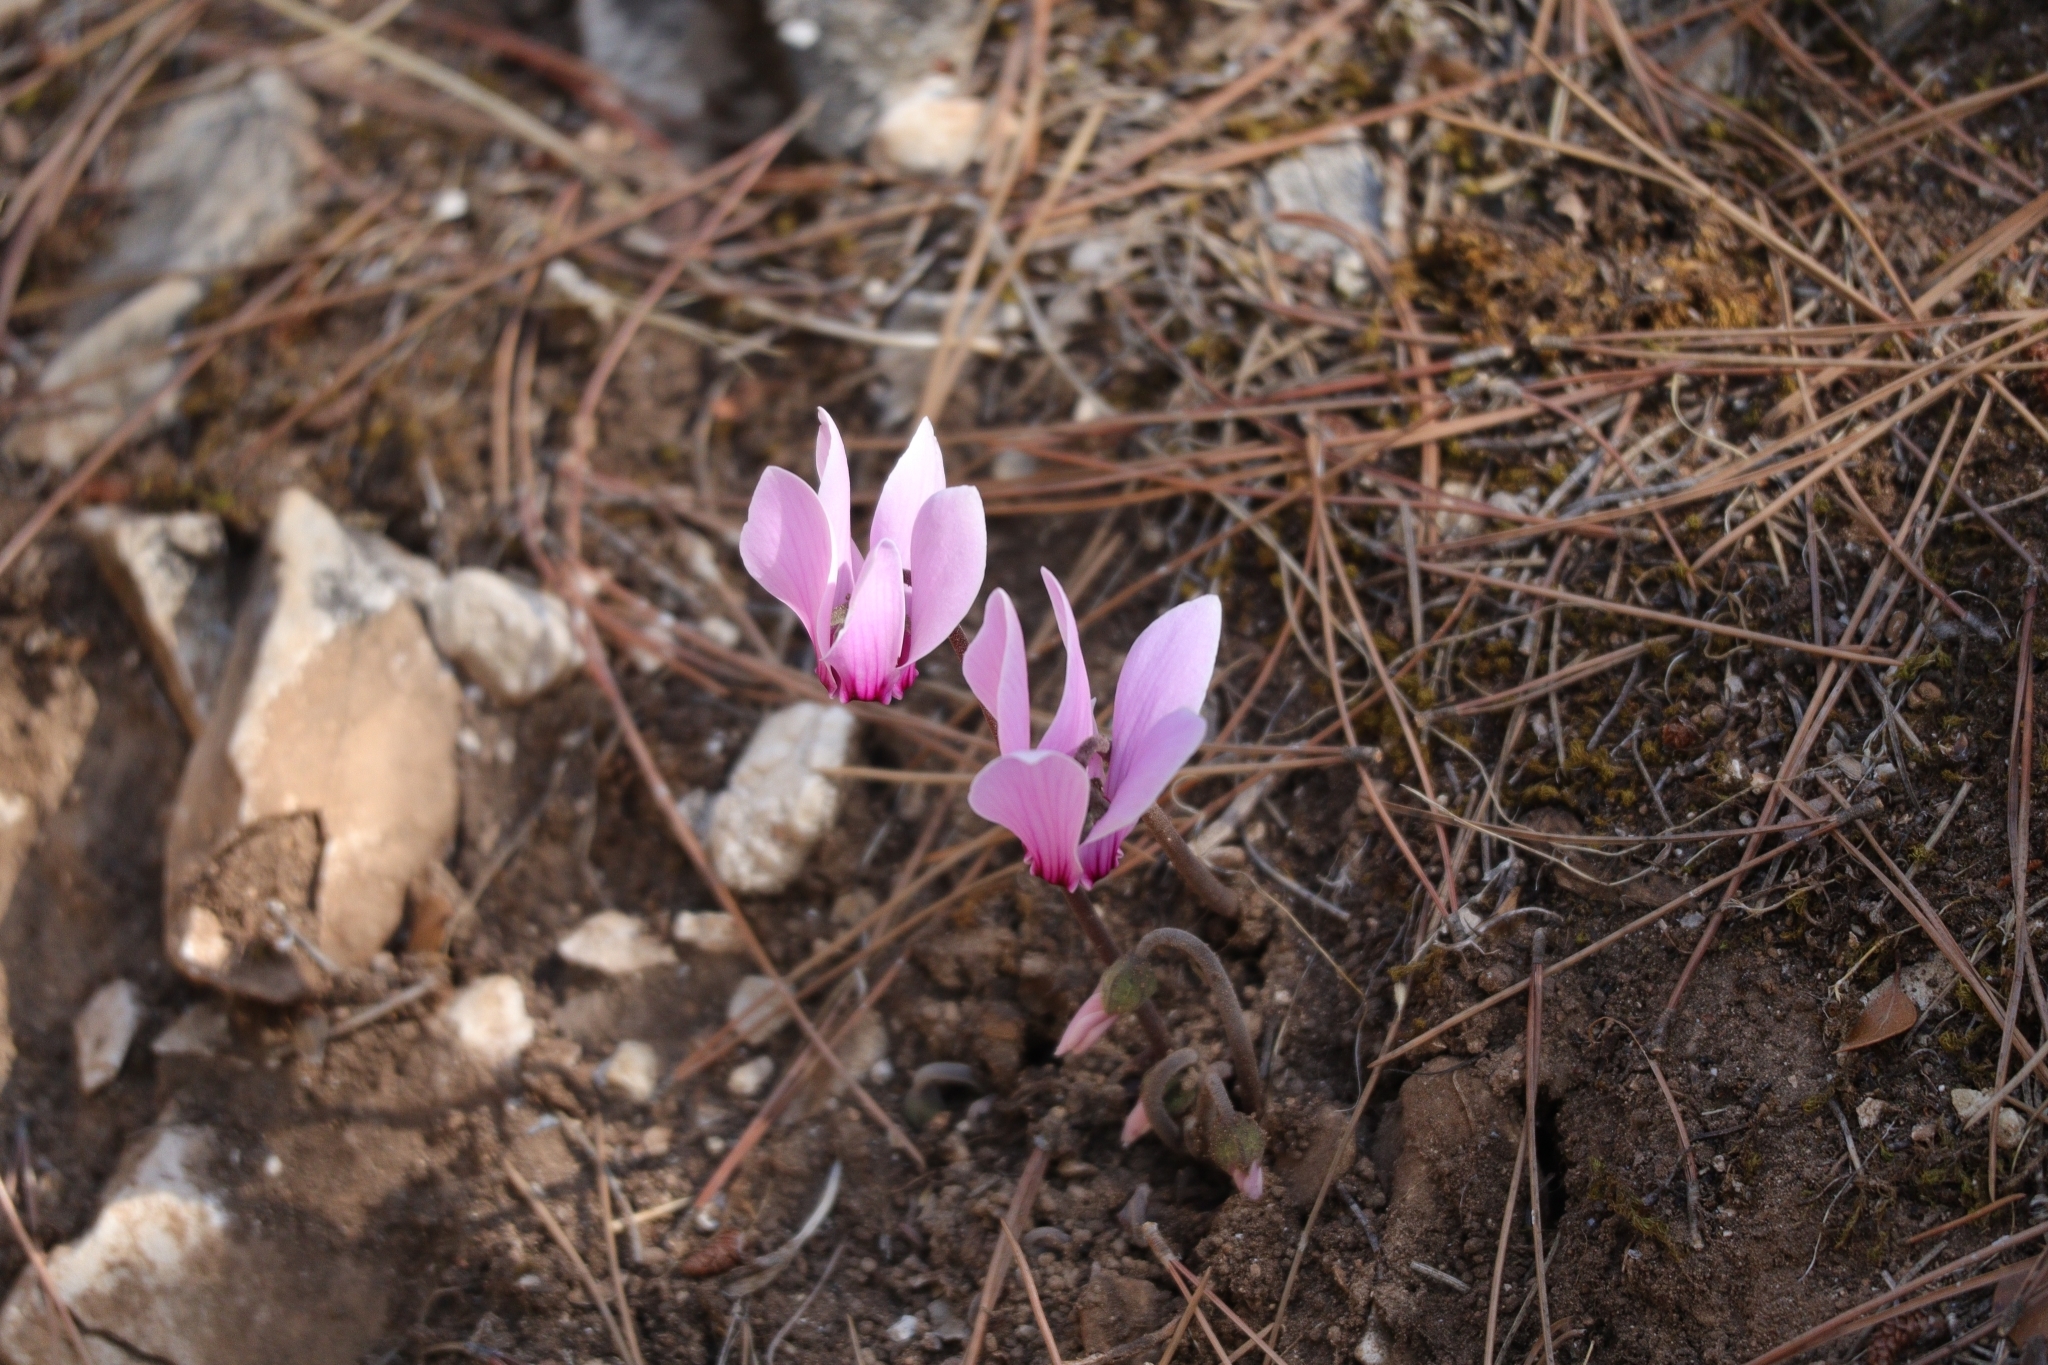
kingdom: Plantae
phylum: Tracheophyta
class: Magnoliopsida
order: Ericales
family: Primulaceae
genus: Cyclamen
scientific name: Cyclamen graecum
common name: Greek cyclamen
